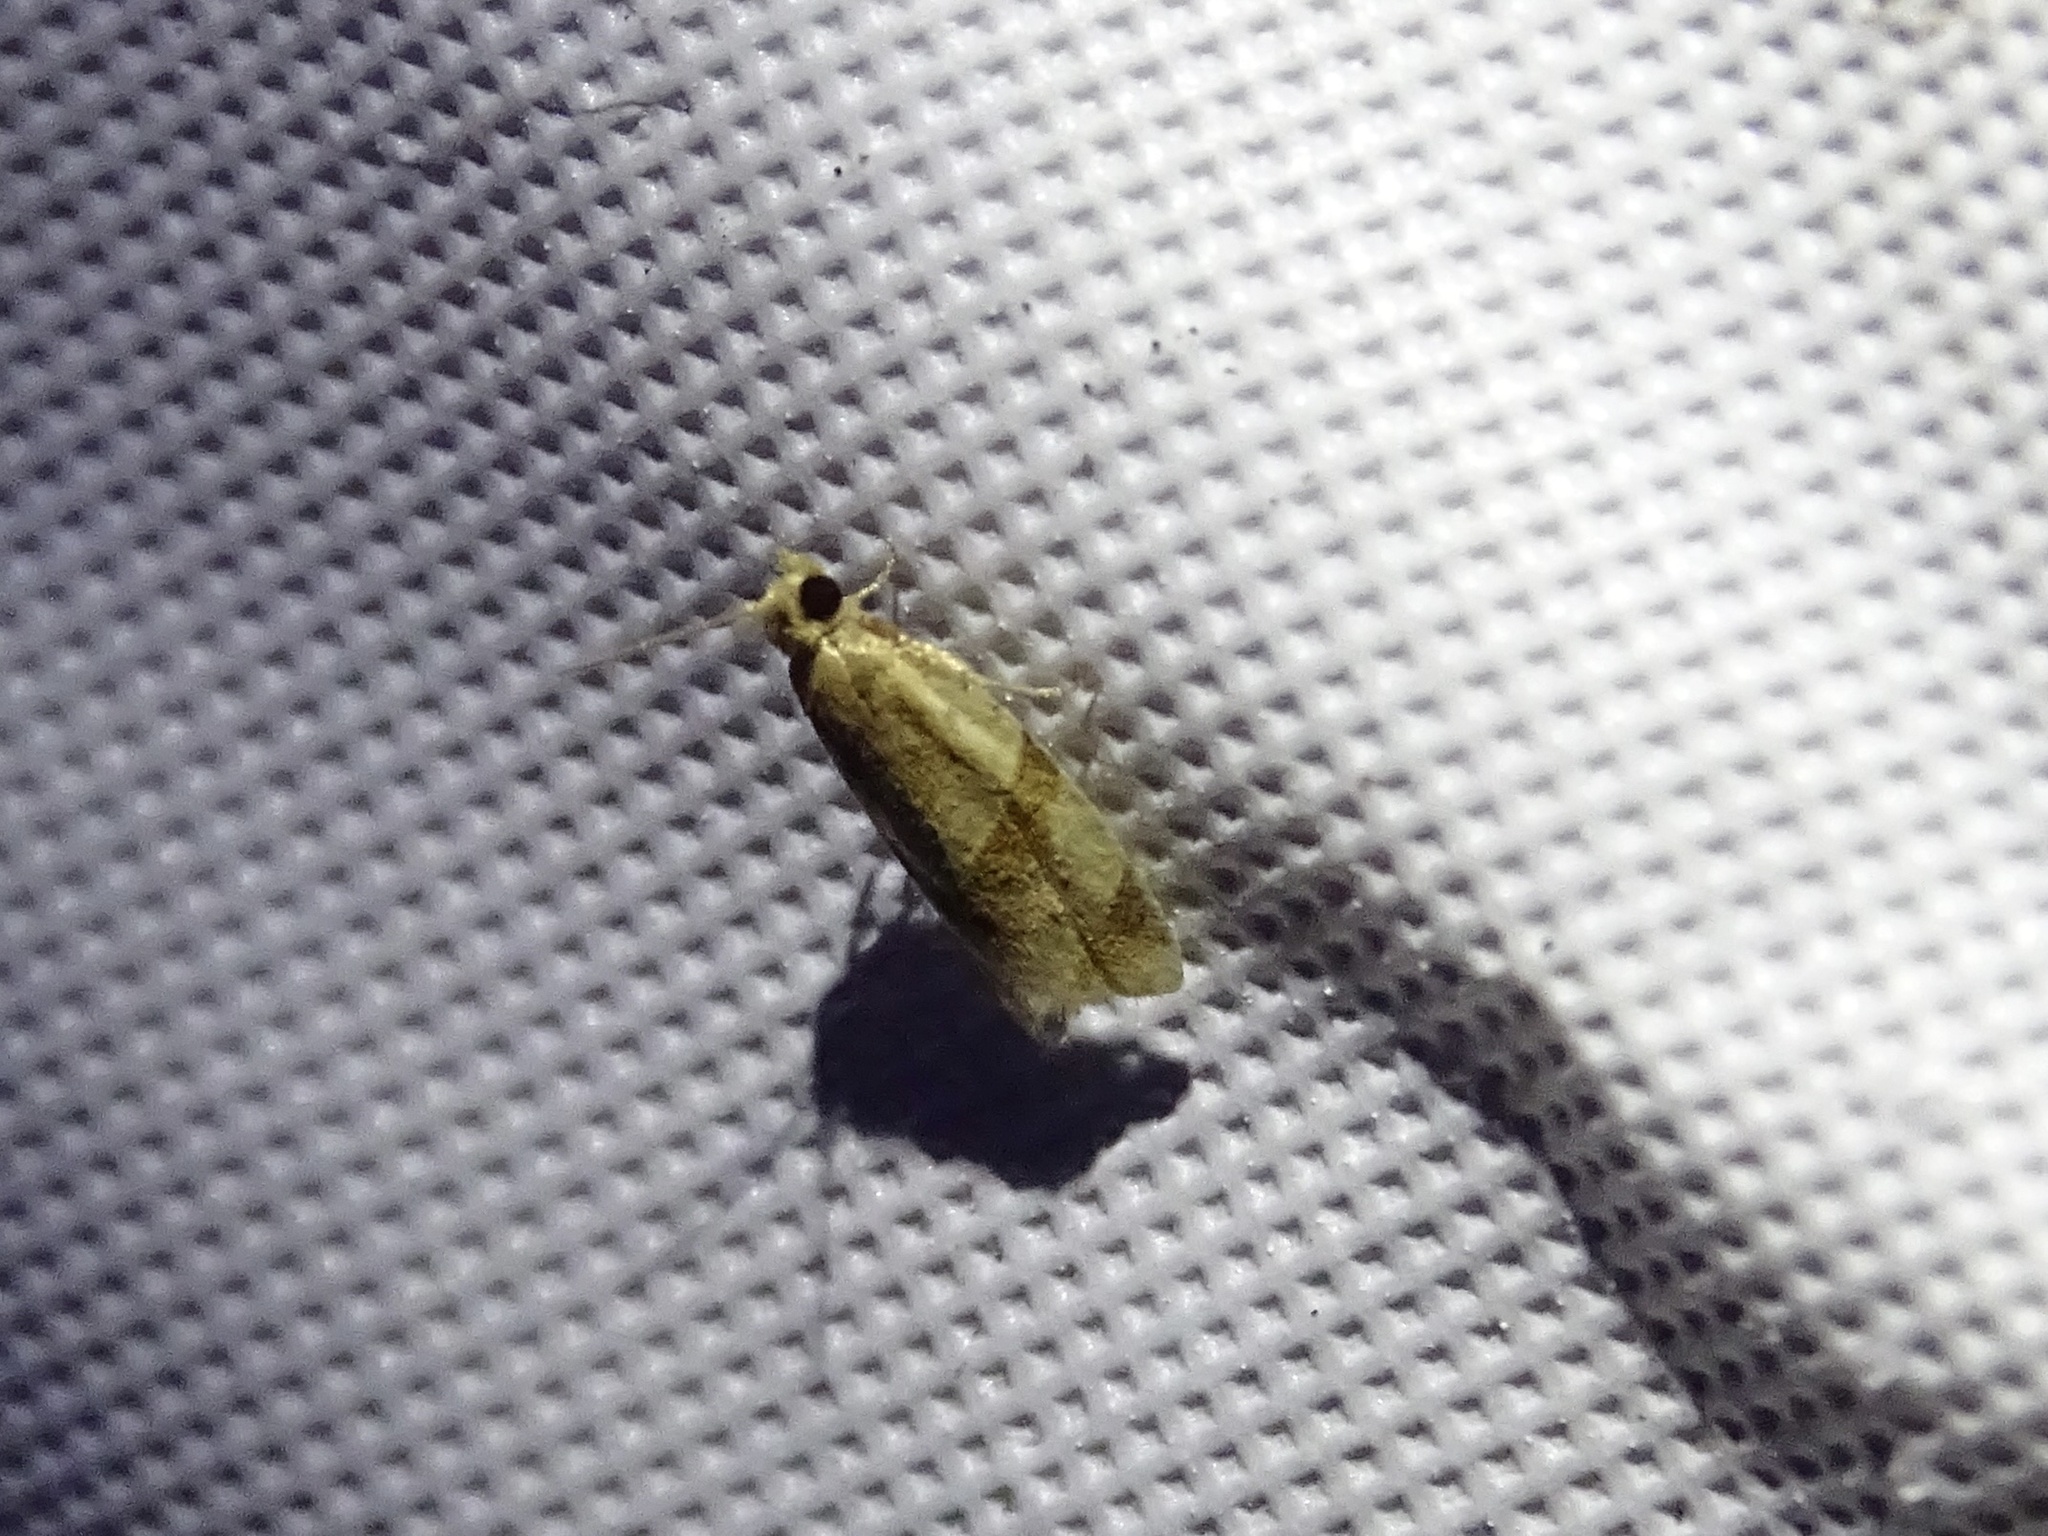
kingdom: Animalia
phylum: Arthropoda
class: Insecta
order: Lepidoptera
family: Tortricidae
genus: Clepsis
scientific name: Clepsis peritana
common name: Garden tortrix
